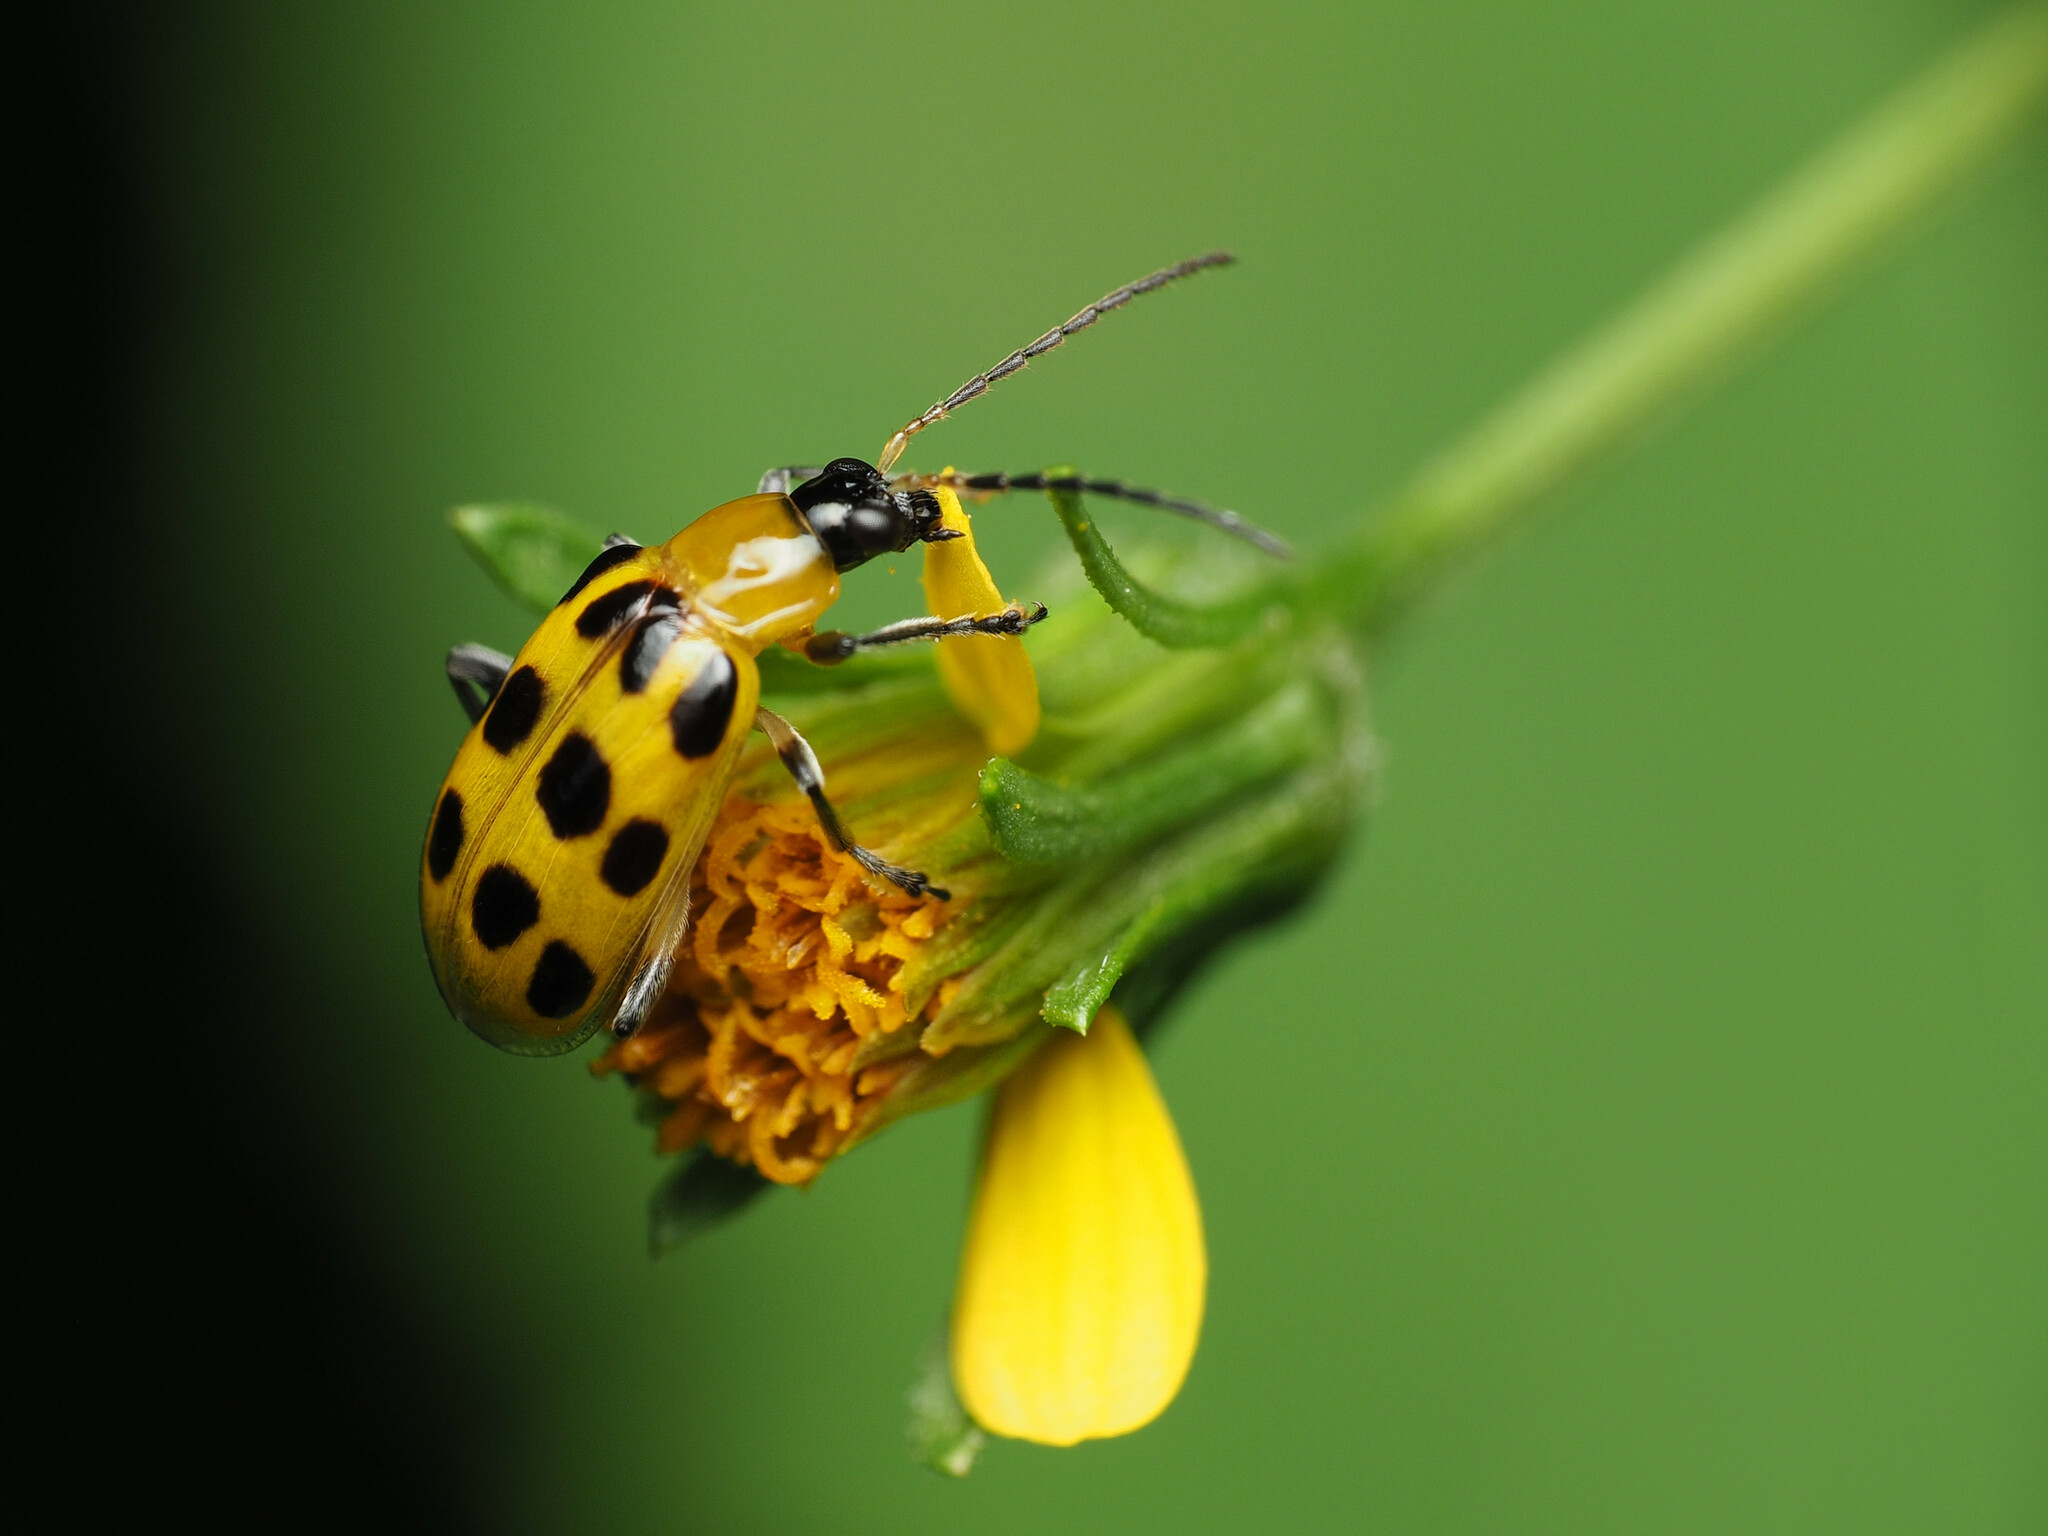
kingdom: Animalia
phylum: Arthropoda
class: Insecta
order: Coleoptera
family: Chrysomelidae
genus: Diabrotica
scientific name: Diabrotica undecimpunctata
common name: Spotted cucumber beetle
